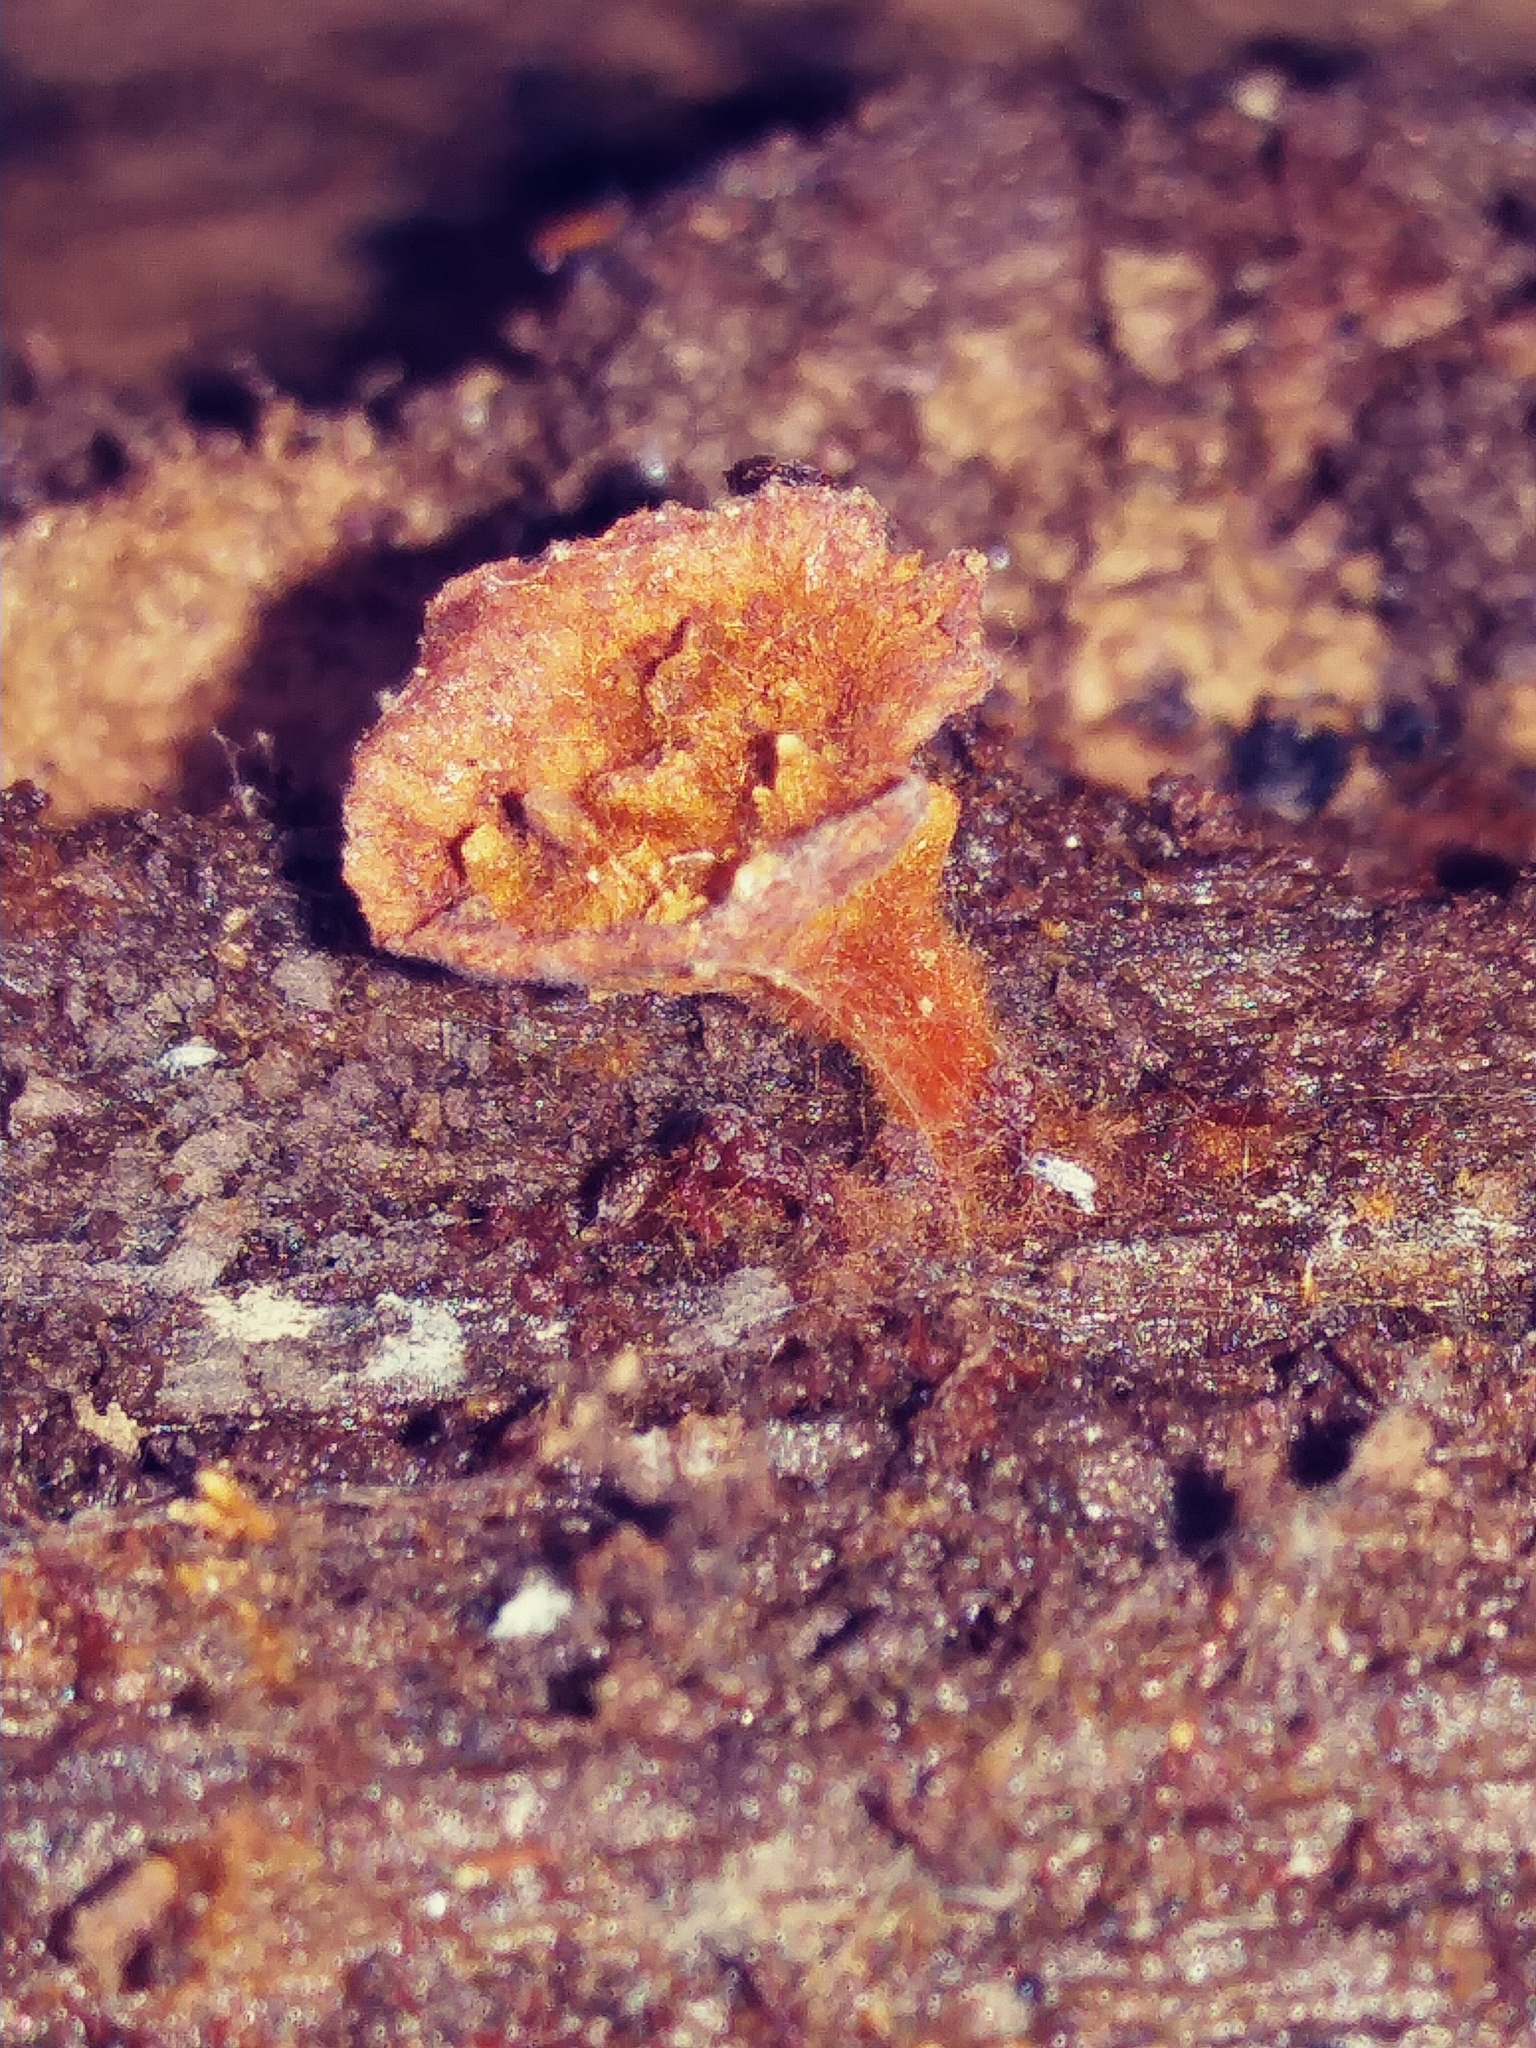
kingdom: Fungi
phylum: Basidiomycota
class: Agaricomycetes
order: Hymenochaetales
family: Hymenochaetaceae
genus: Coltriciella
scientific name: Coltriciella dependens
